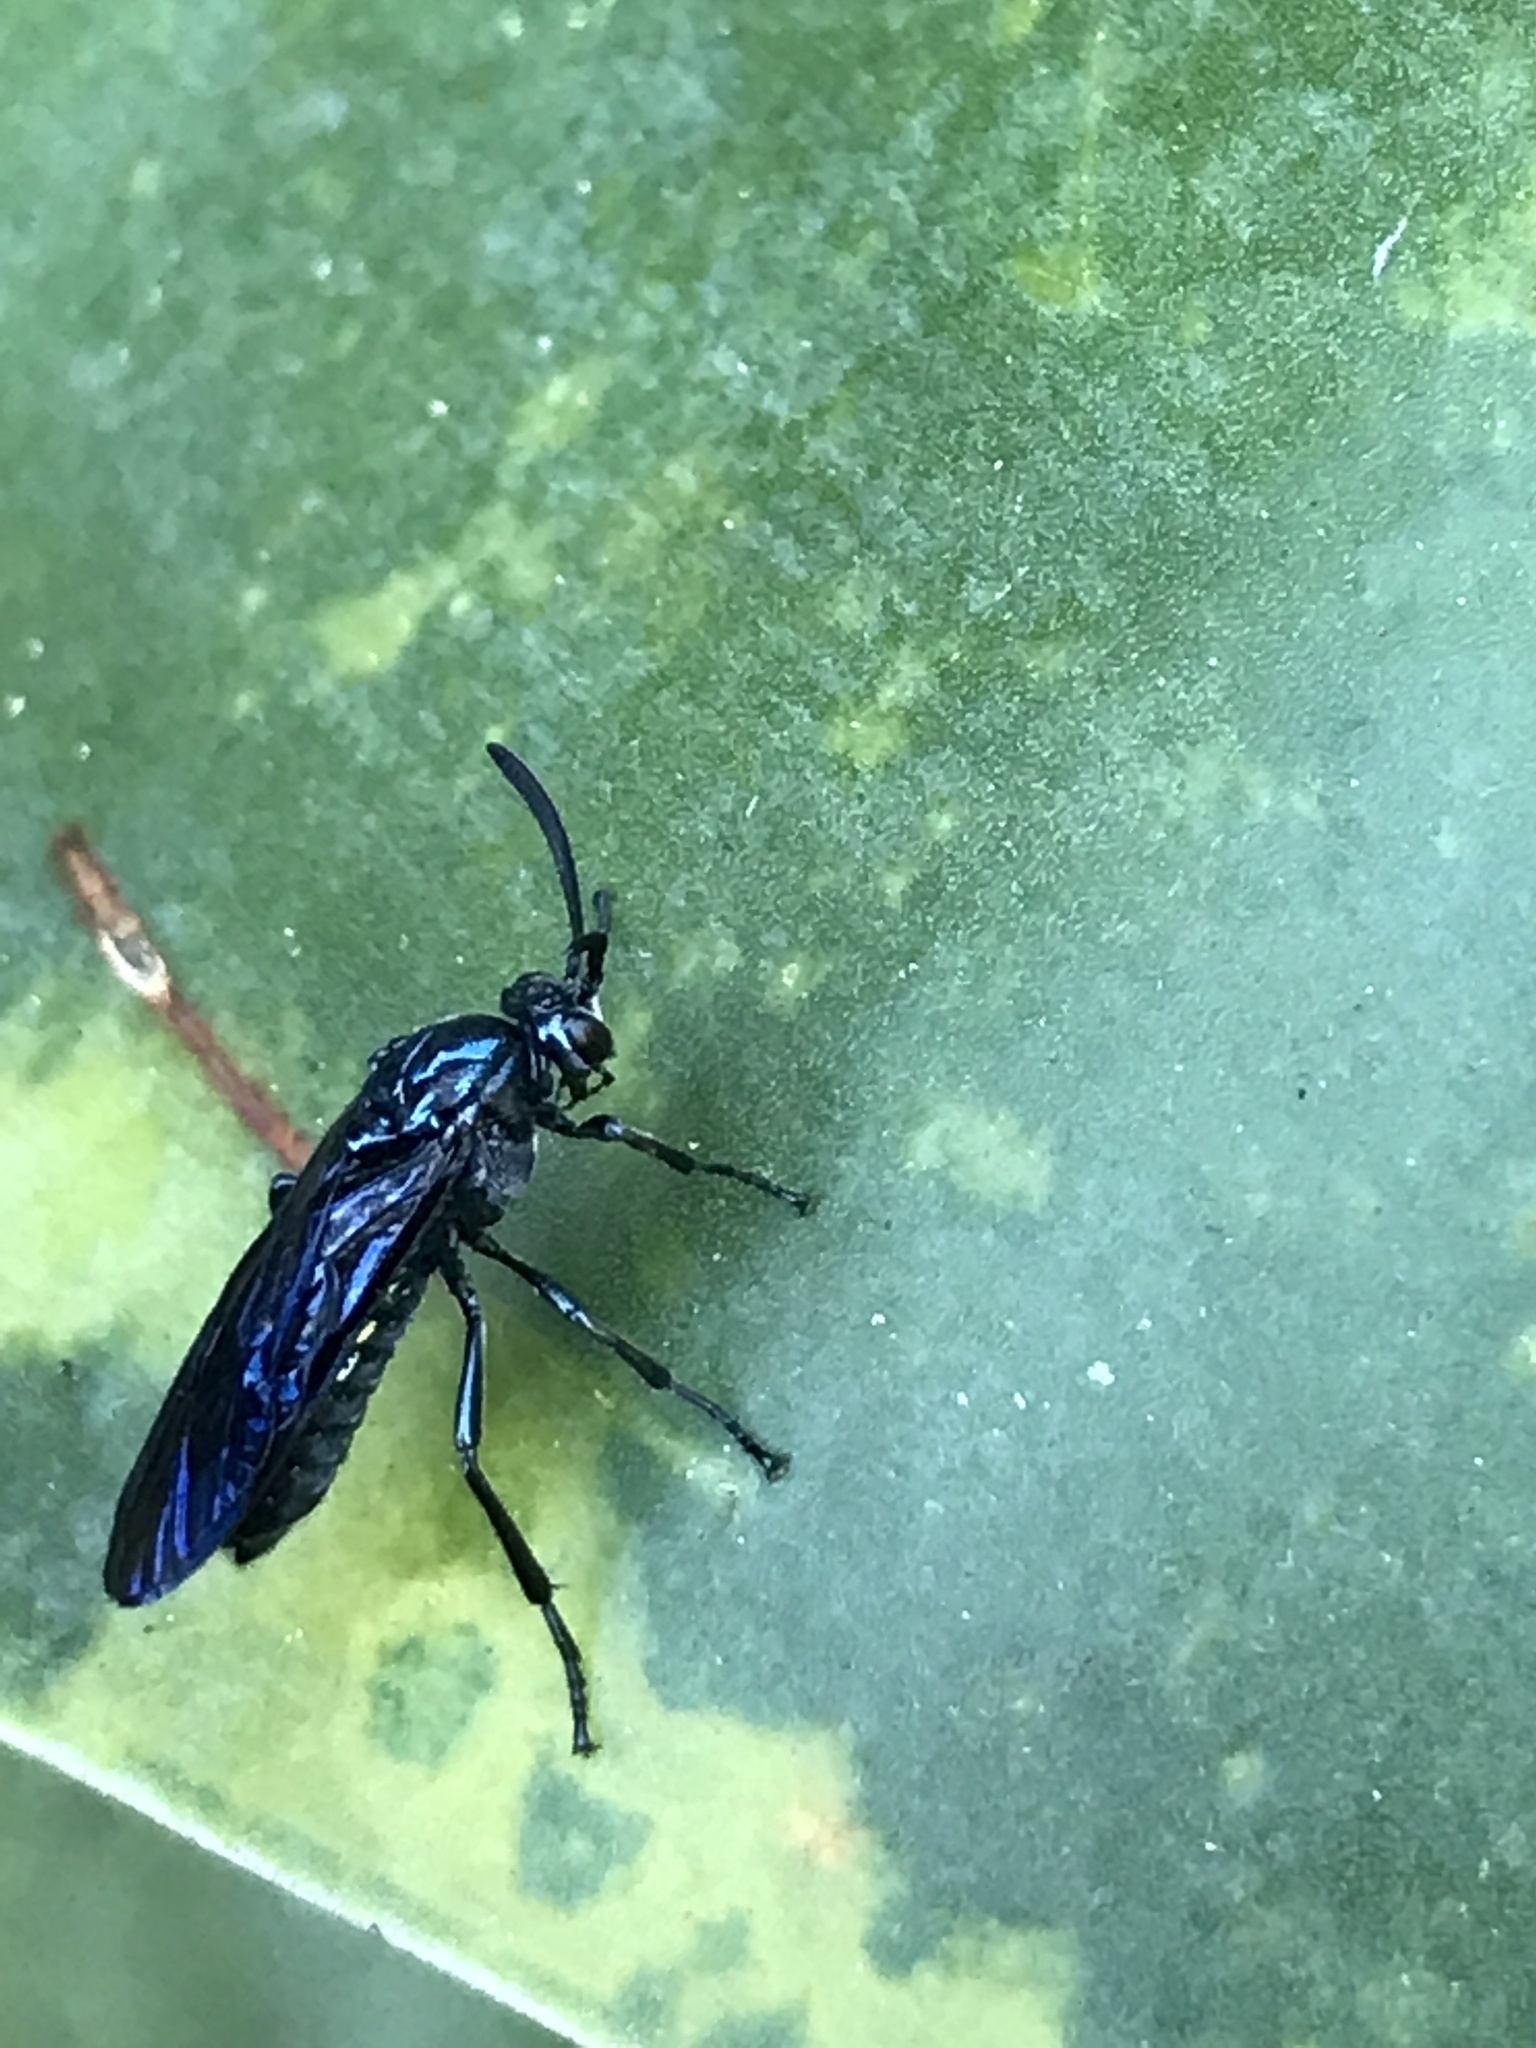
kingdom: Animalia
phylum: Arthropoda
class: Insecta
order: Hymenoptera
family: Argidae
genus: Cibdela
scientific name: Cibdela janthina
